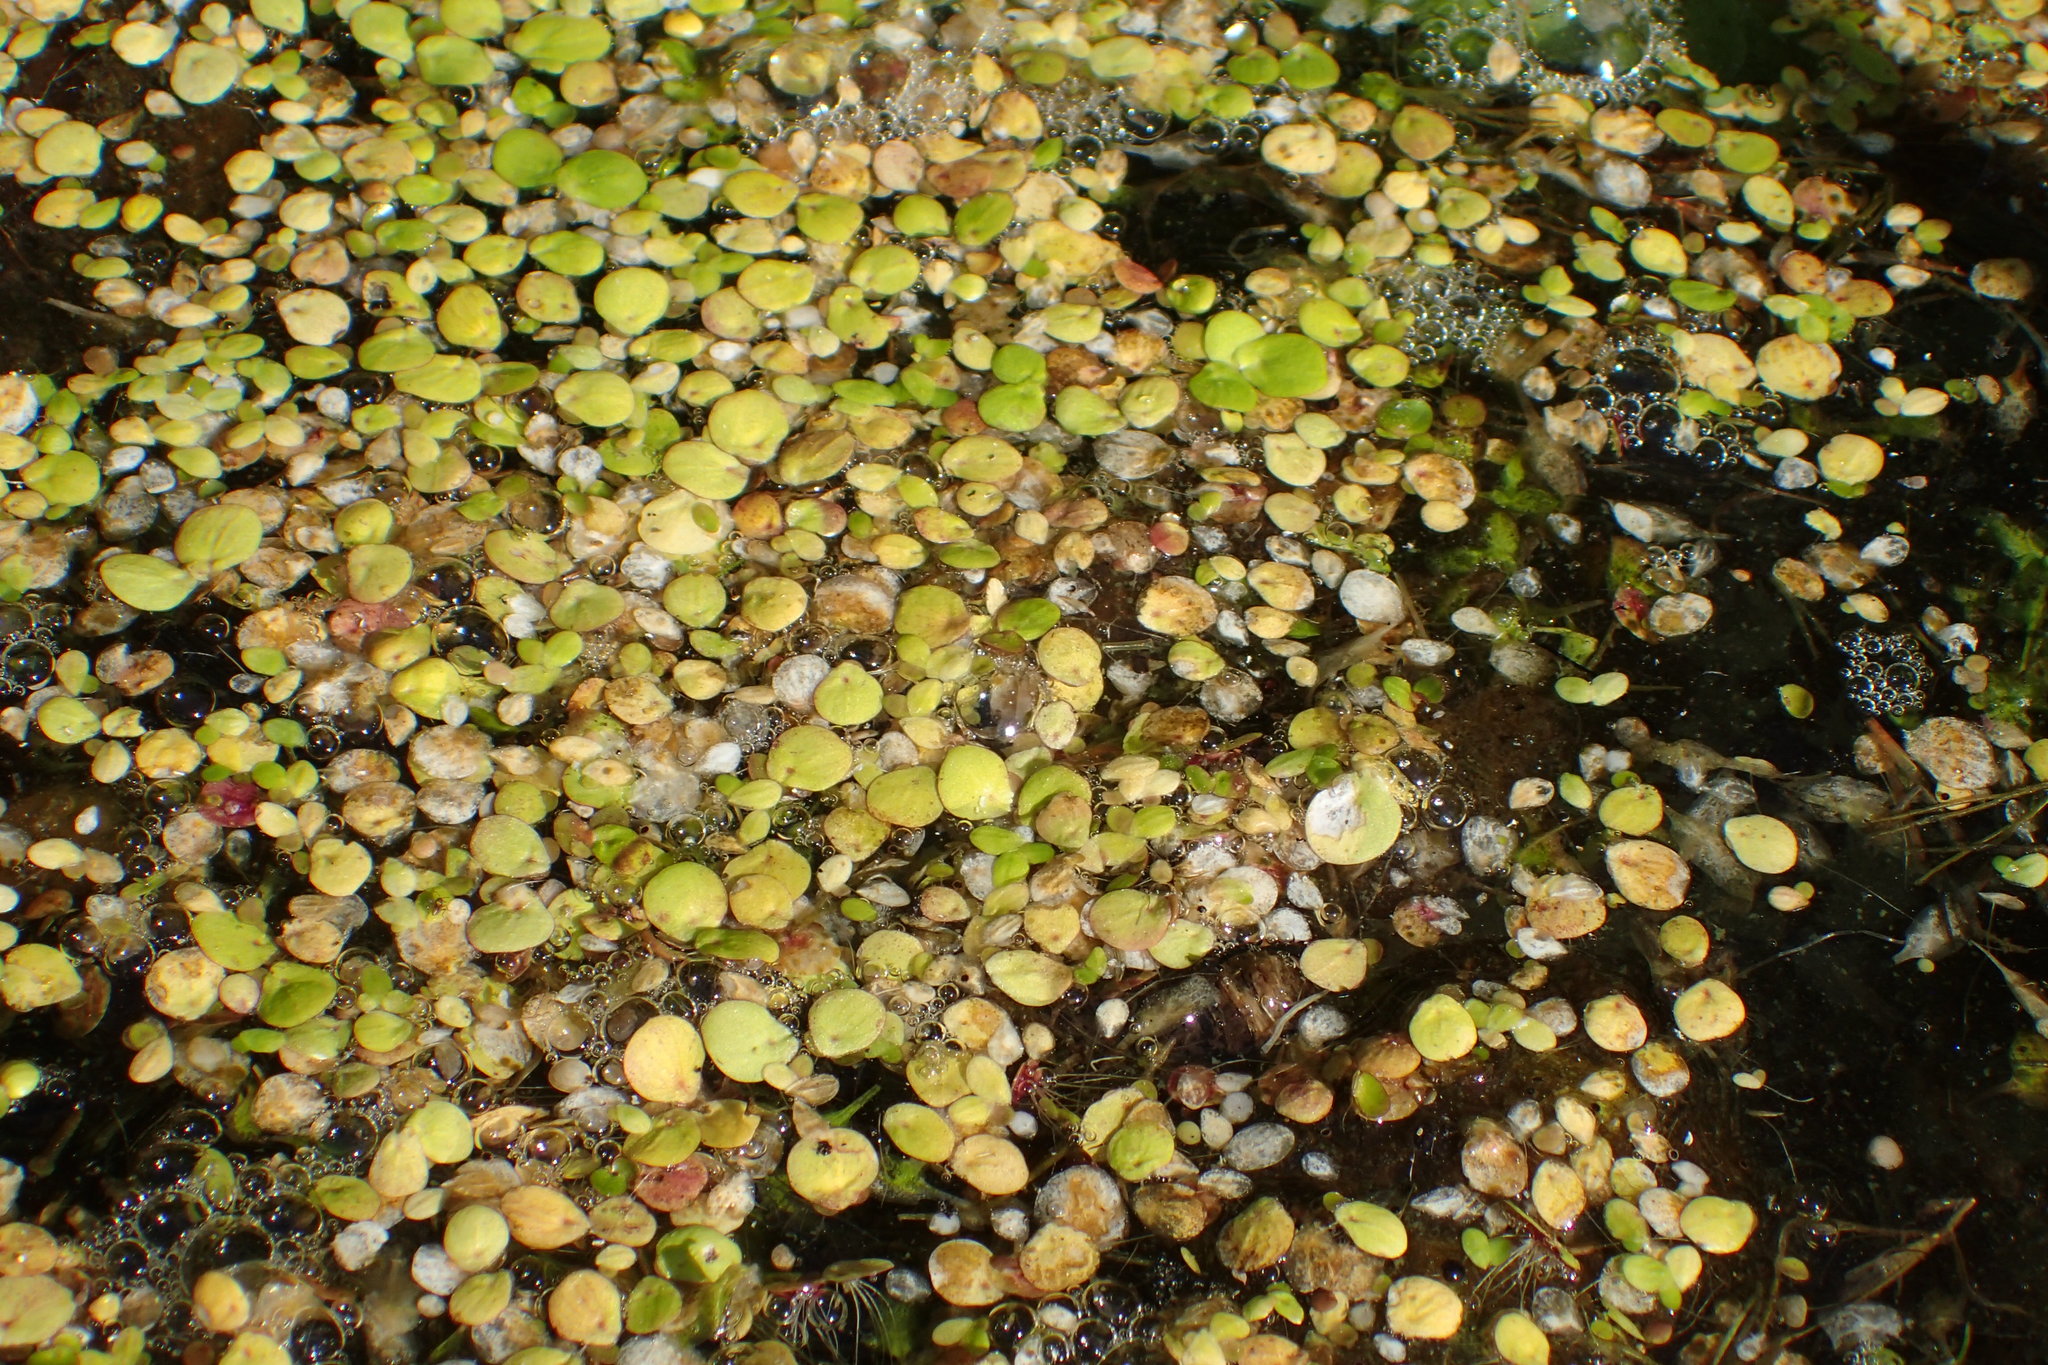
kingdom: Plantae
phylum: Tracheophyta
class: Liliopsida
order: Alismatales
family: Araceae
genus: Spirodela
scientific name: Spirodela polyrhiza
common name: Great duckweed
